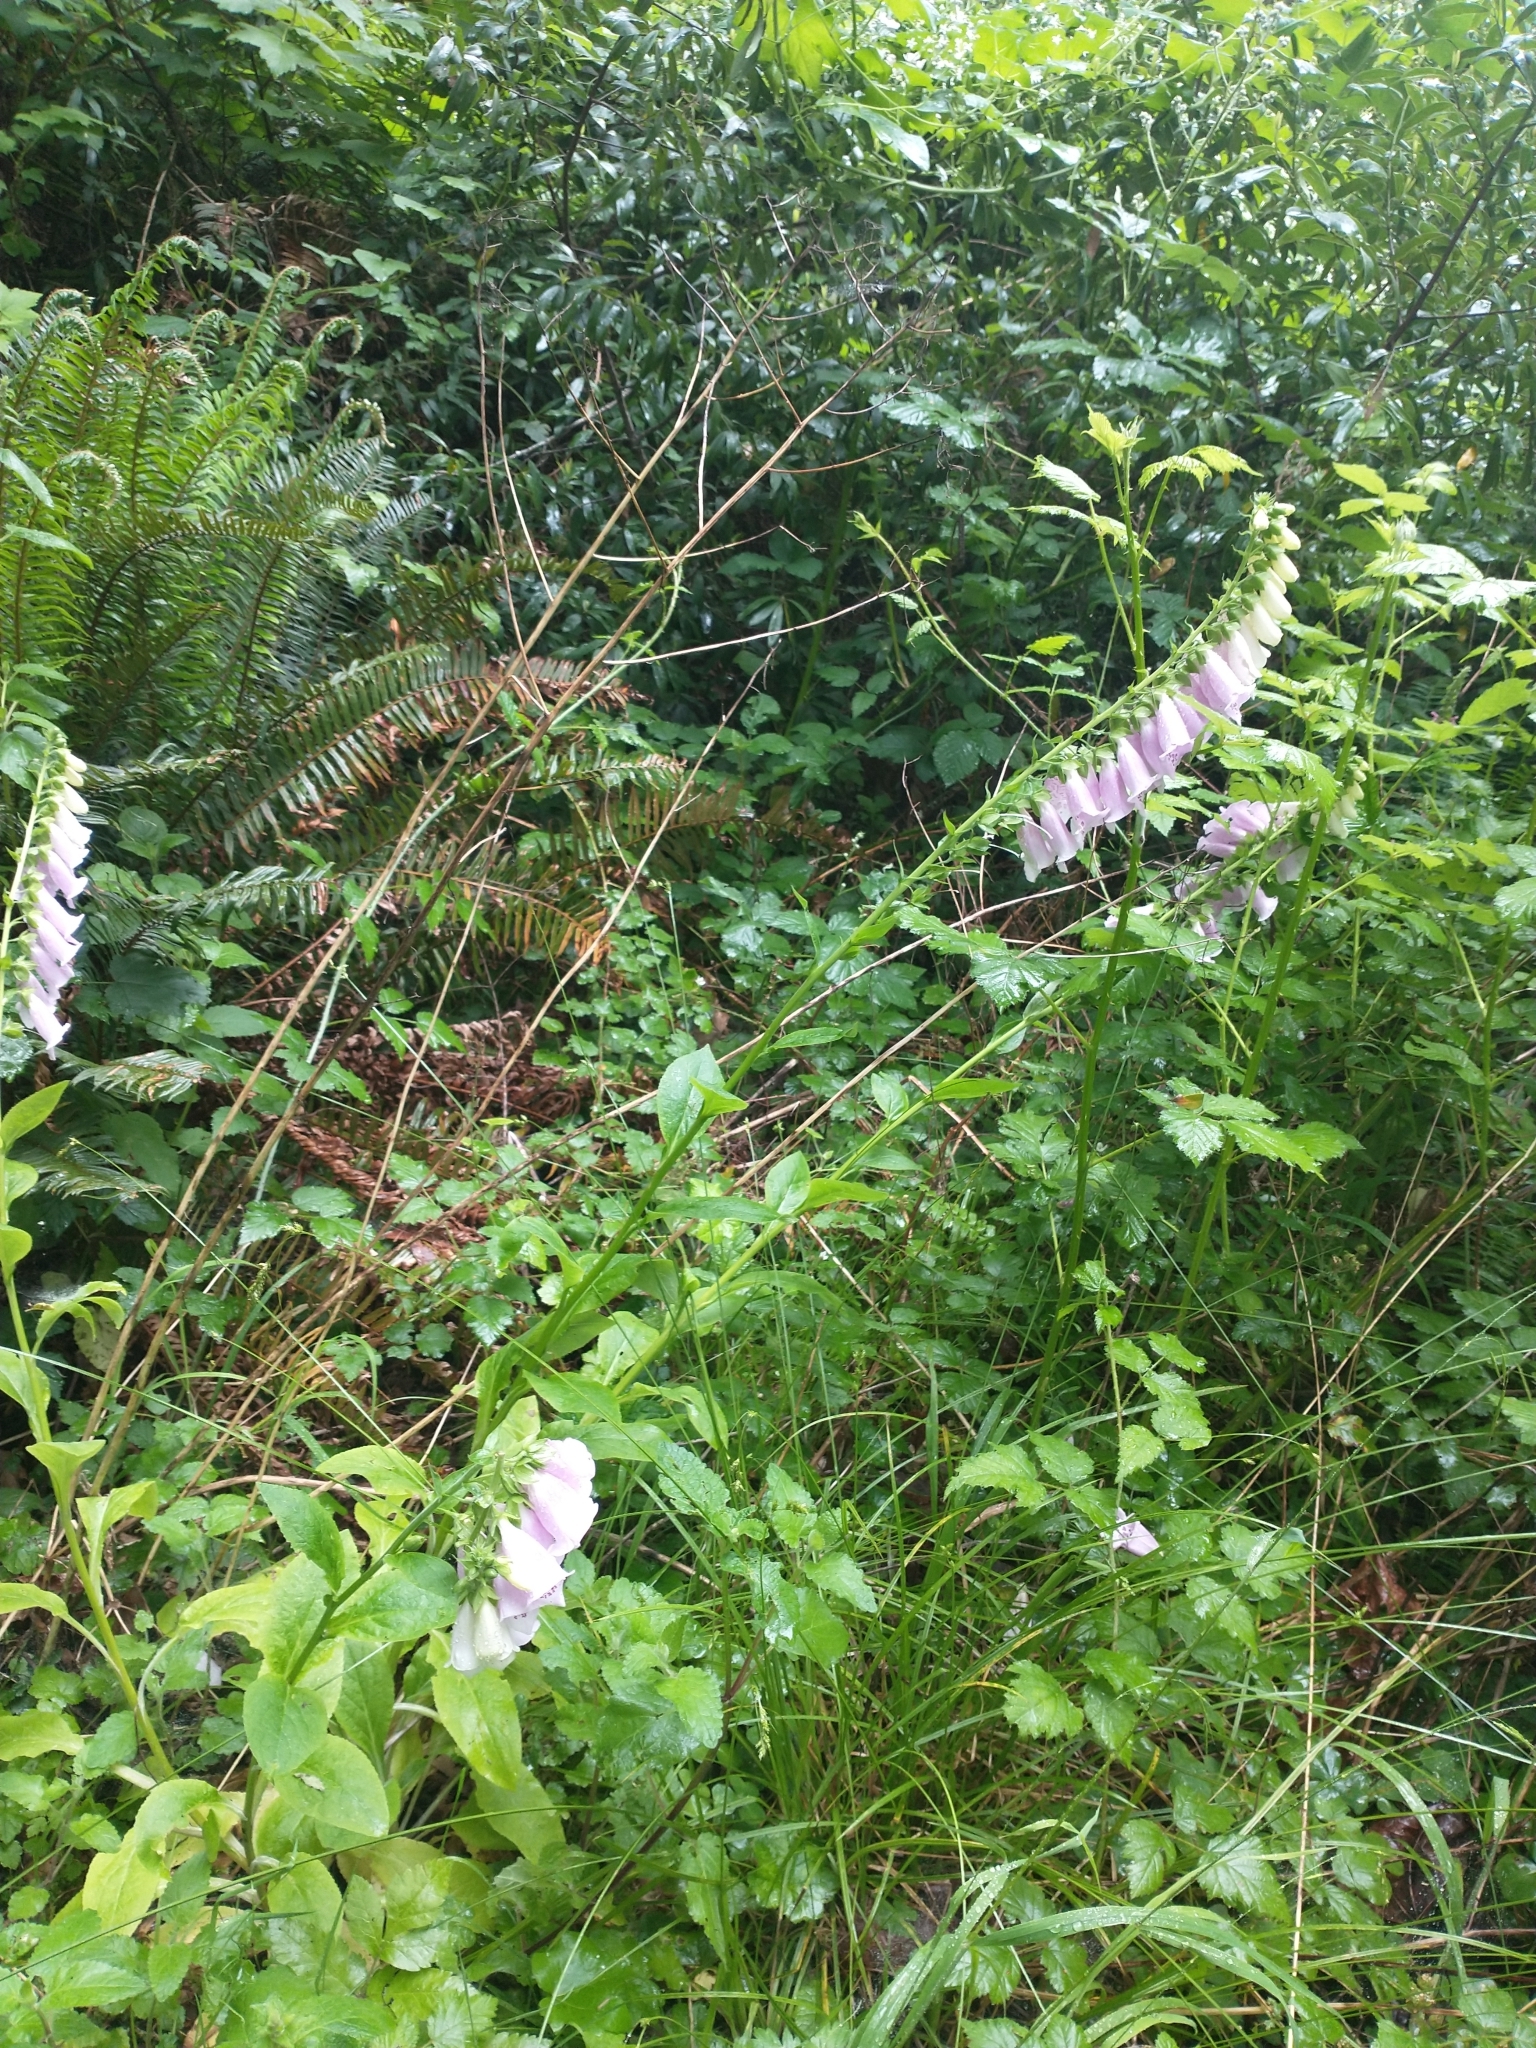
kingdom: Plantae
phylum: Tracheophyta
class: Magnoliopsida
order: Lamiales
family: Plantaginaceae
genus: Digitalis
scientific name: Digitalis purpurea
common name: Foxglove
